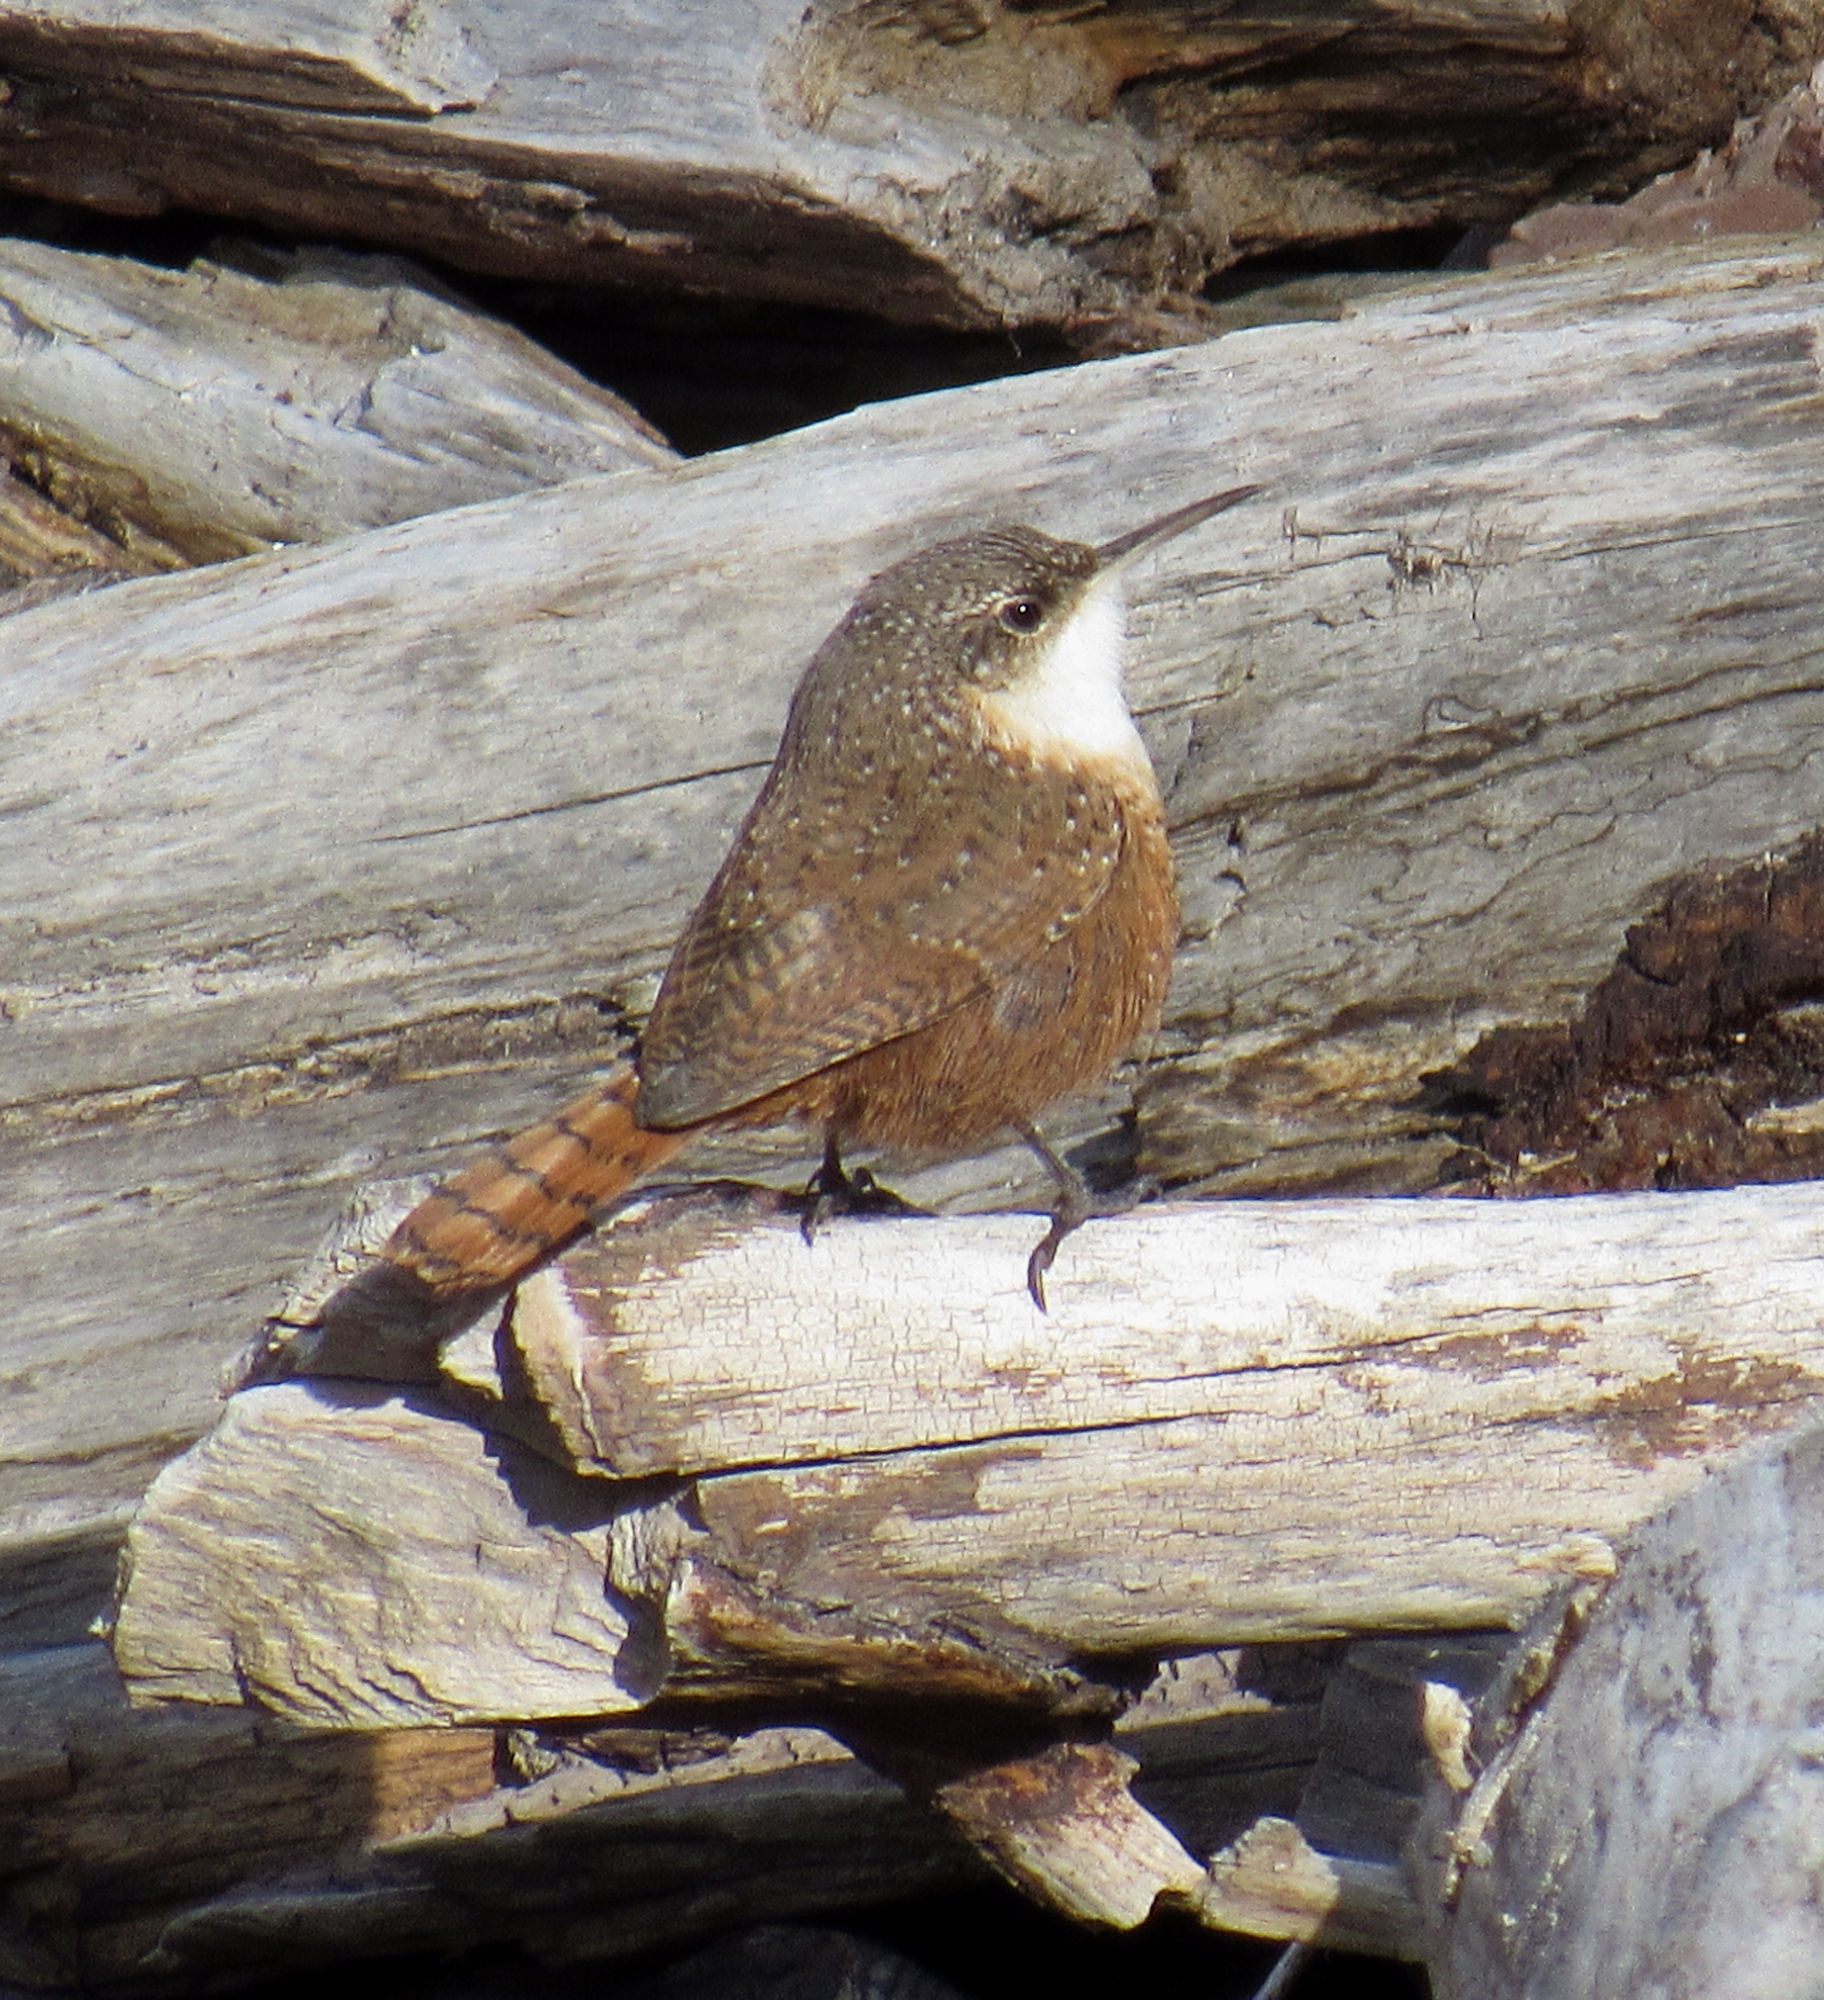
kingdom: Animalia
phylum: Chordata
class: Aves
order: Passeriformes
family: Troglodytidae
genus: Catherpes
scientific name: Catherpes mexicanus
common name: Canyon wren
